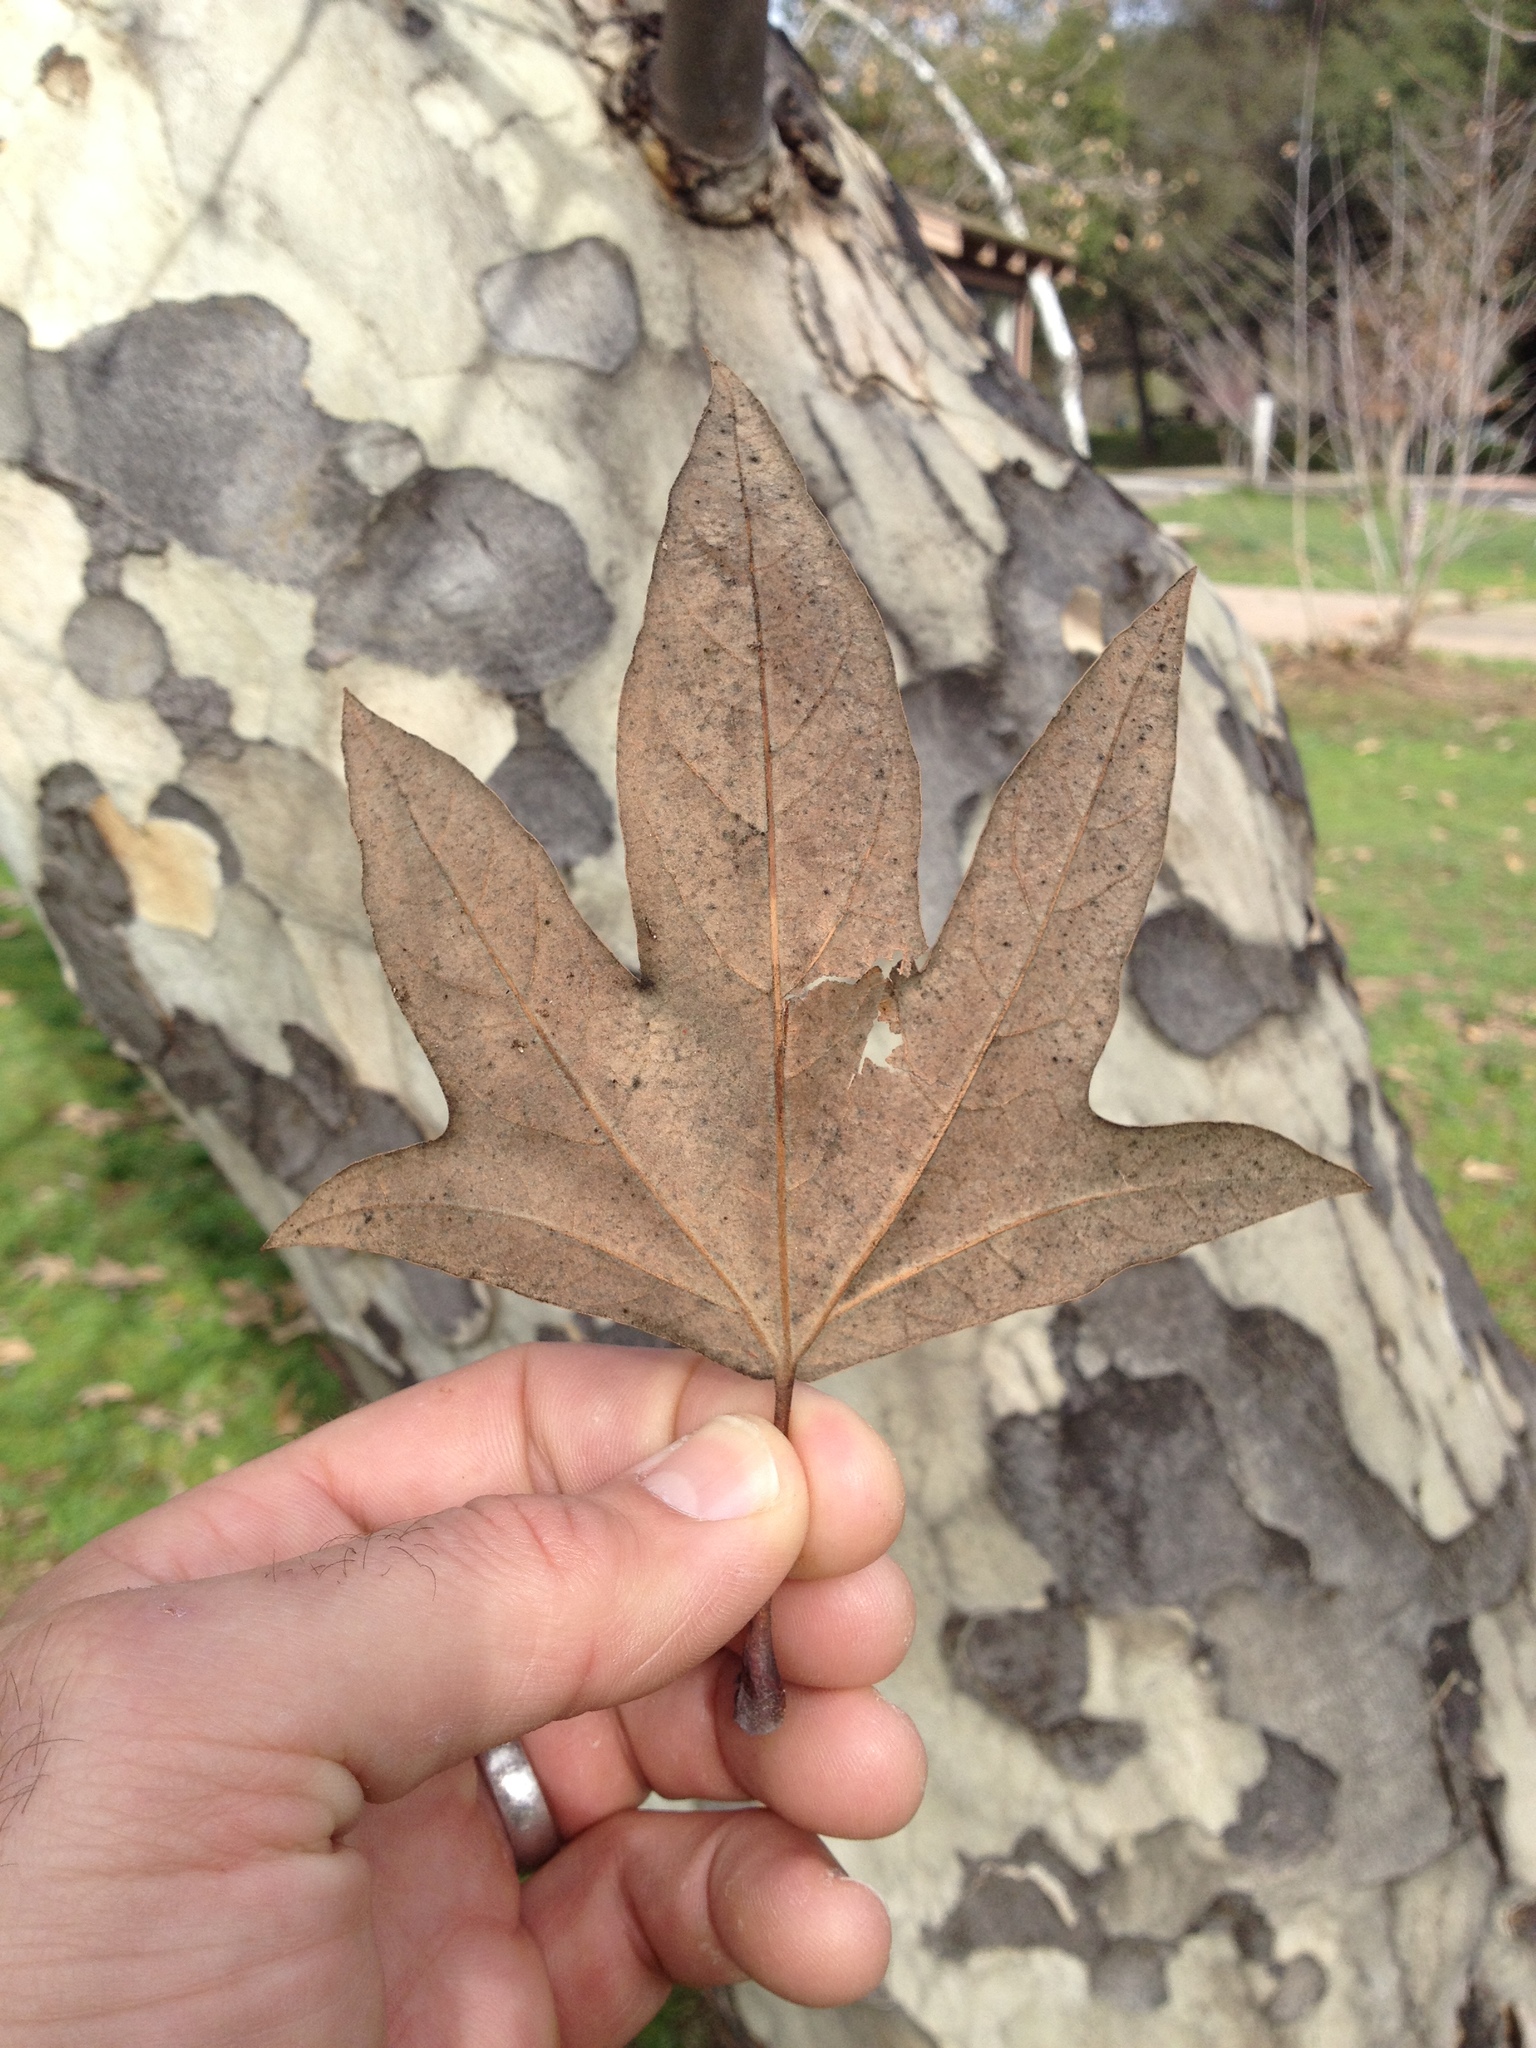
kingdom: Plantae
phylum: Tracheophyta
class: Magnoliopsida
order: Proteales
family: Platanaceae
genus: Platanus
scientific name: Platanus racemosa
